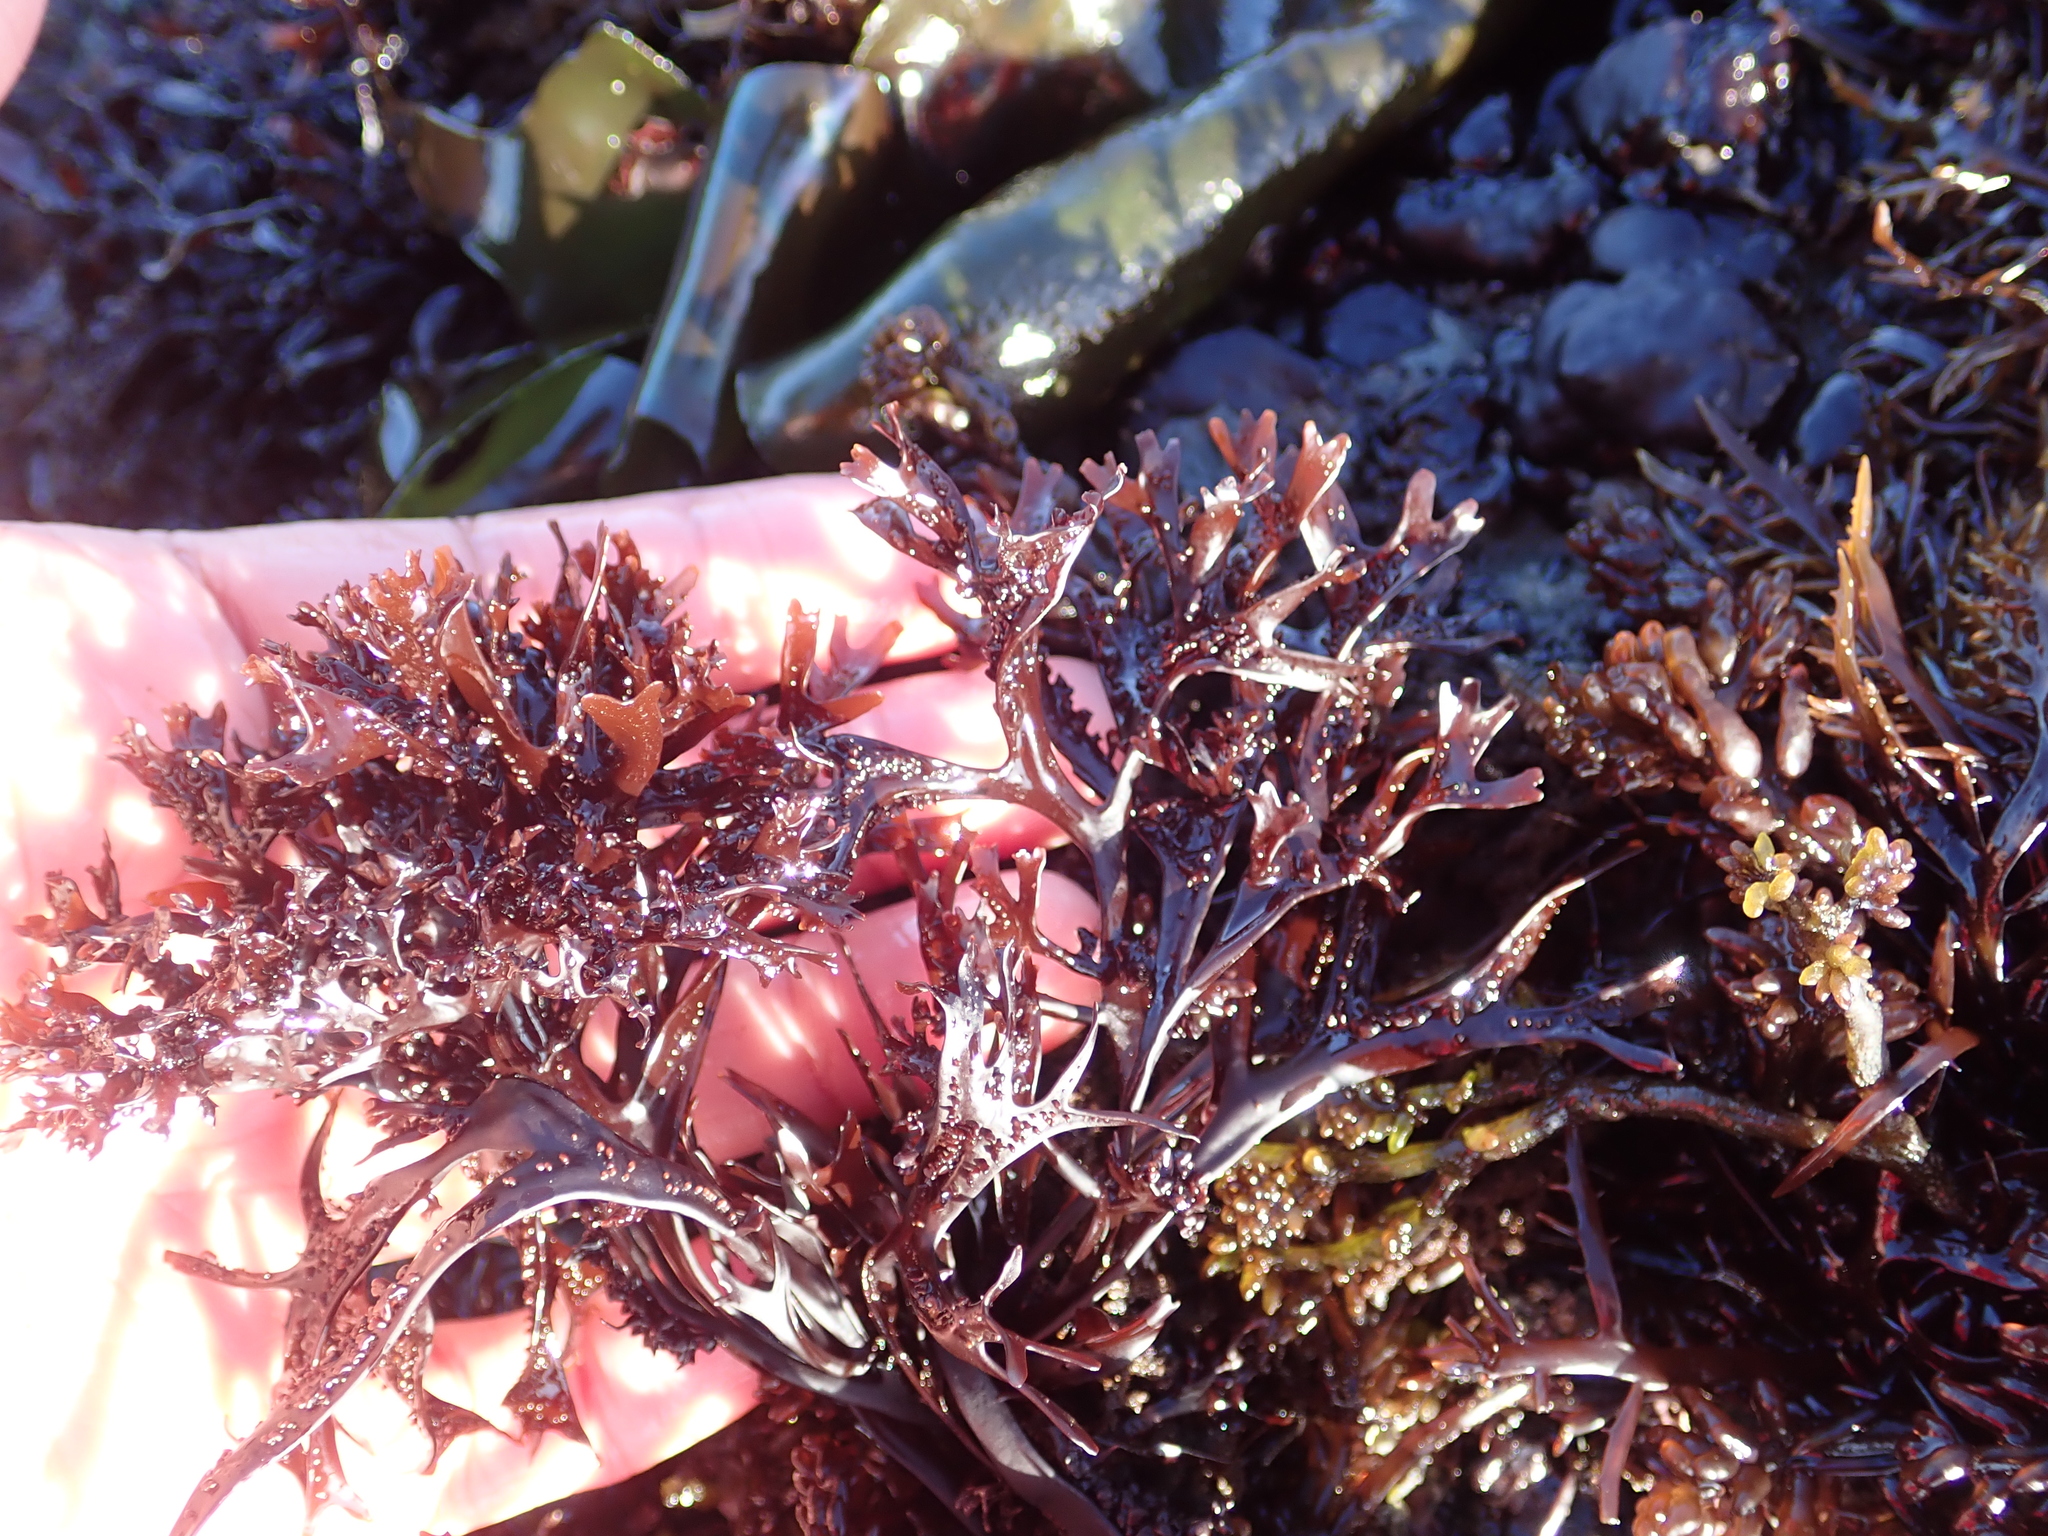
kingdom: Plantae
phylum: Rhodophyta
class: Florideophyceae
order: Gigartinales
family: Phyllophoraceae
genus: Mastocarpus
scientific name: Mastocarpus jardinii
